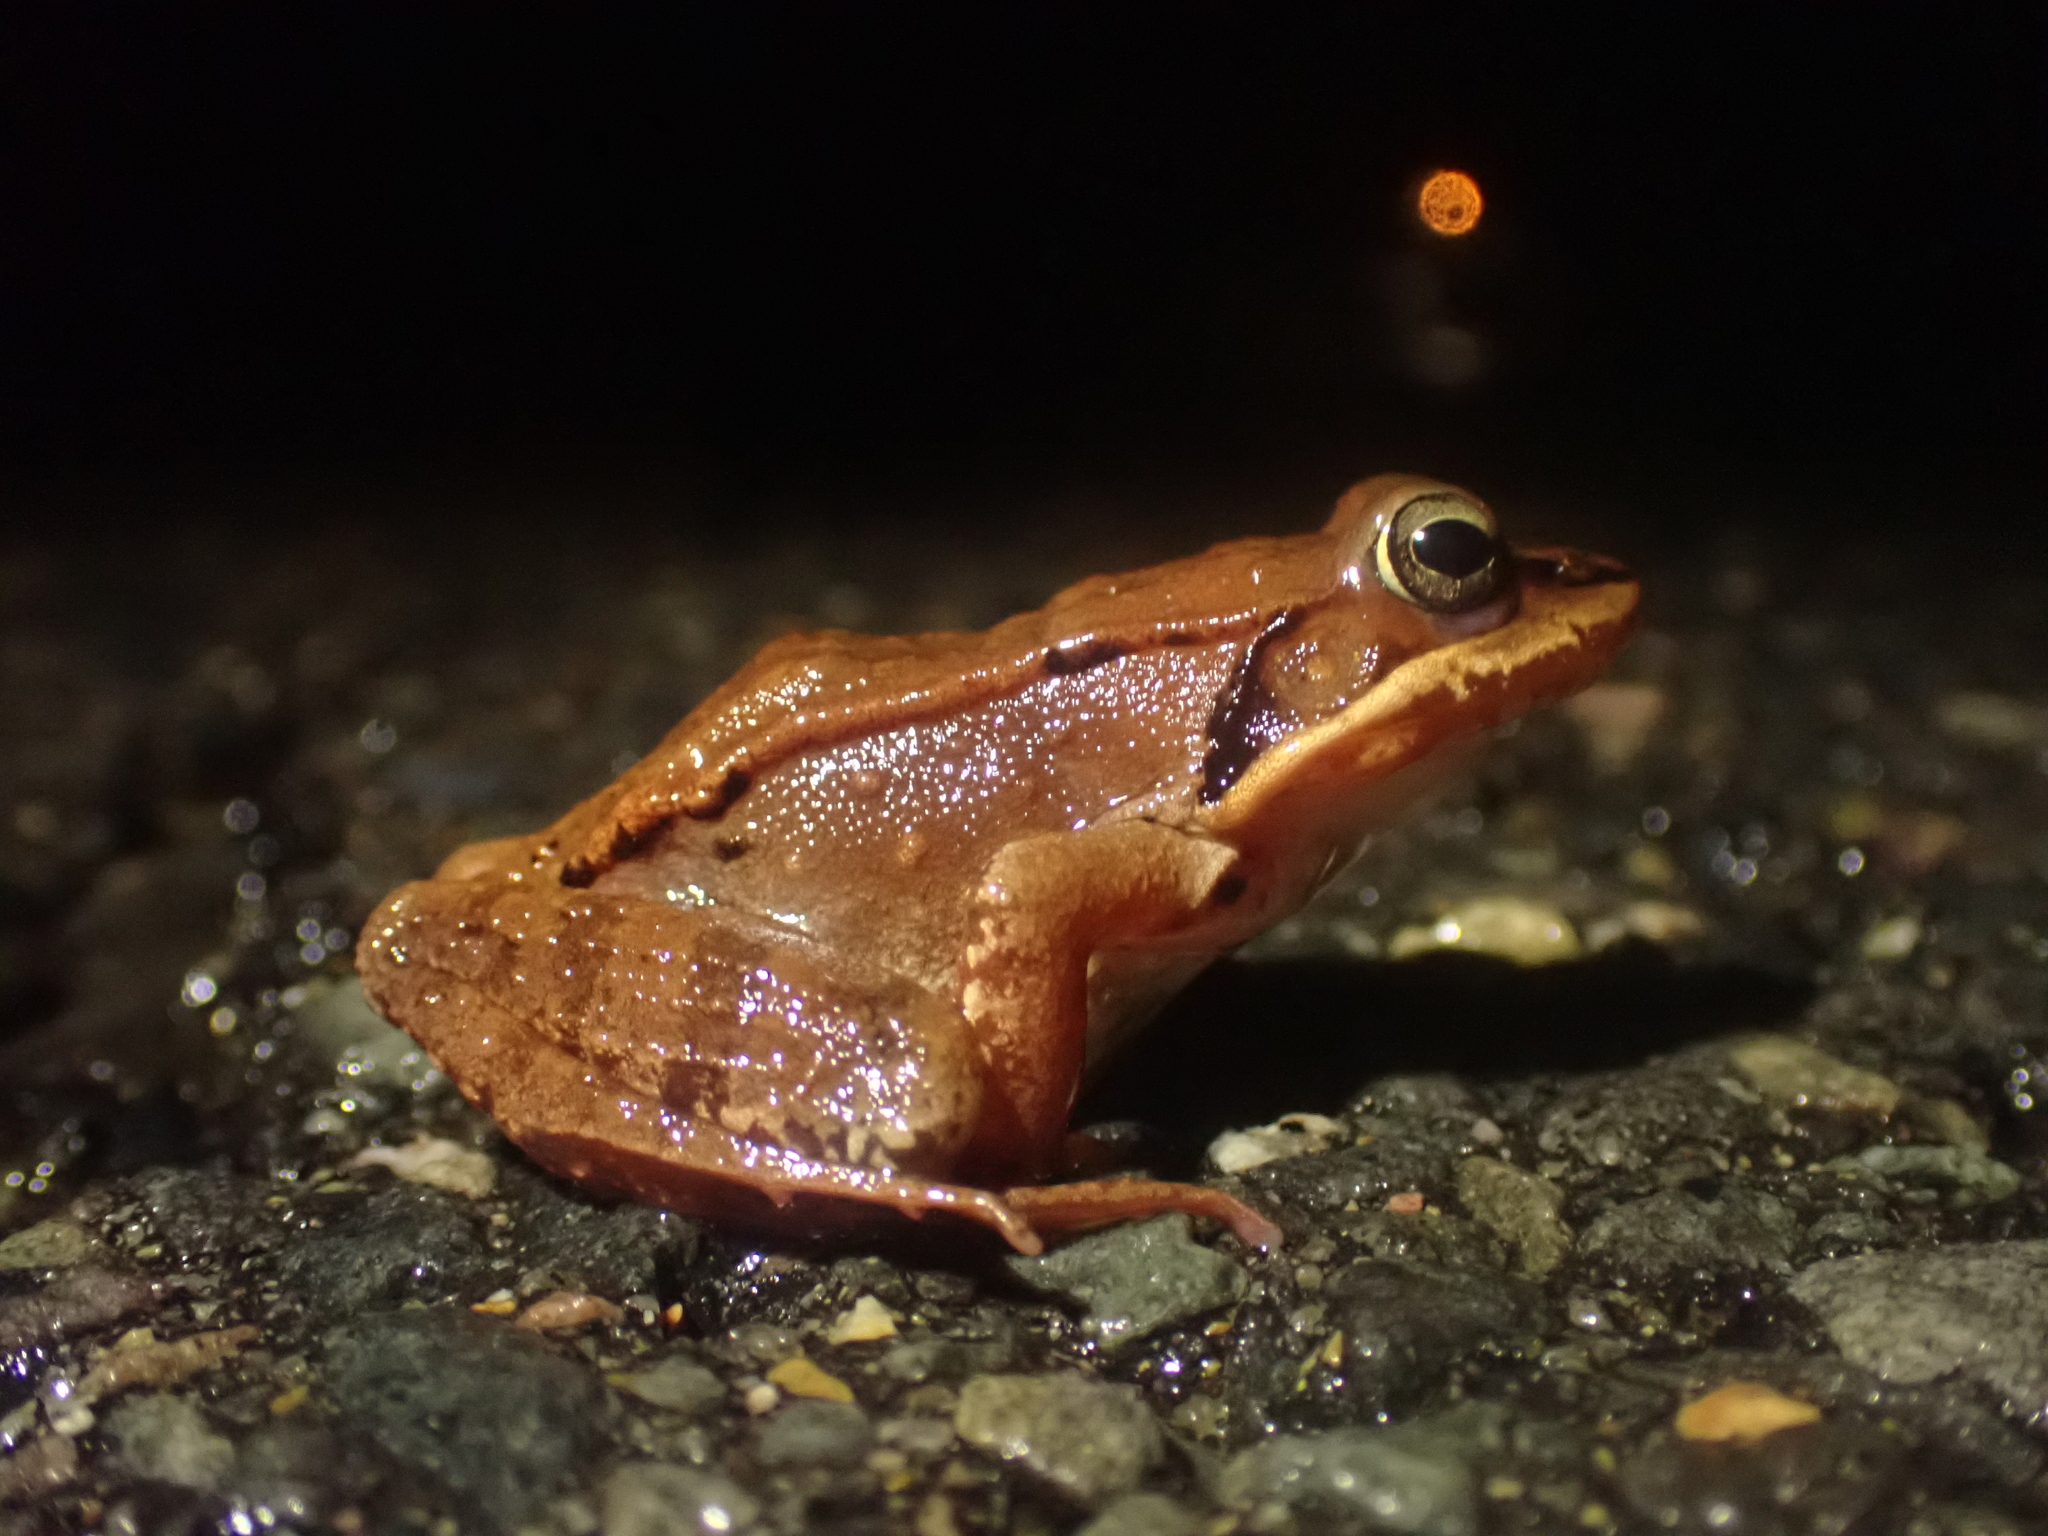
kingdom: Animalia
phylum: Chordata
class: Amphibia
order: Anura
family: Ranidae
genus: Lithobates
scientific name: Lithobates sylvaticus
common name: Wood frog
